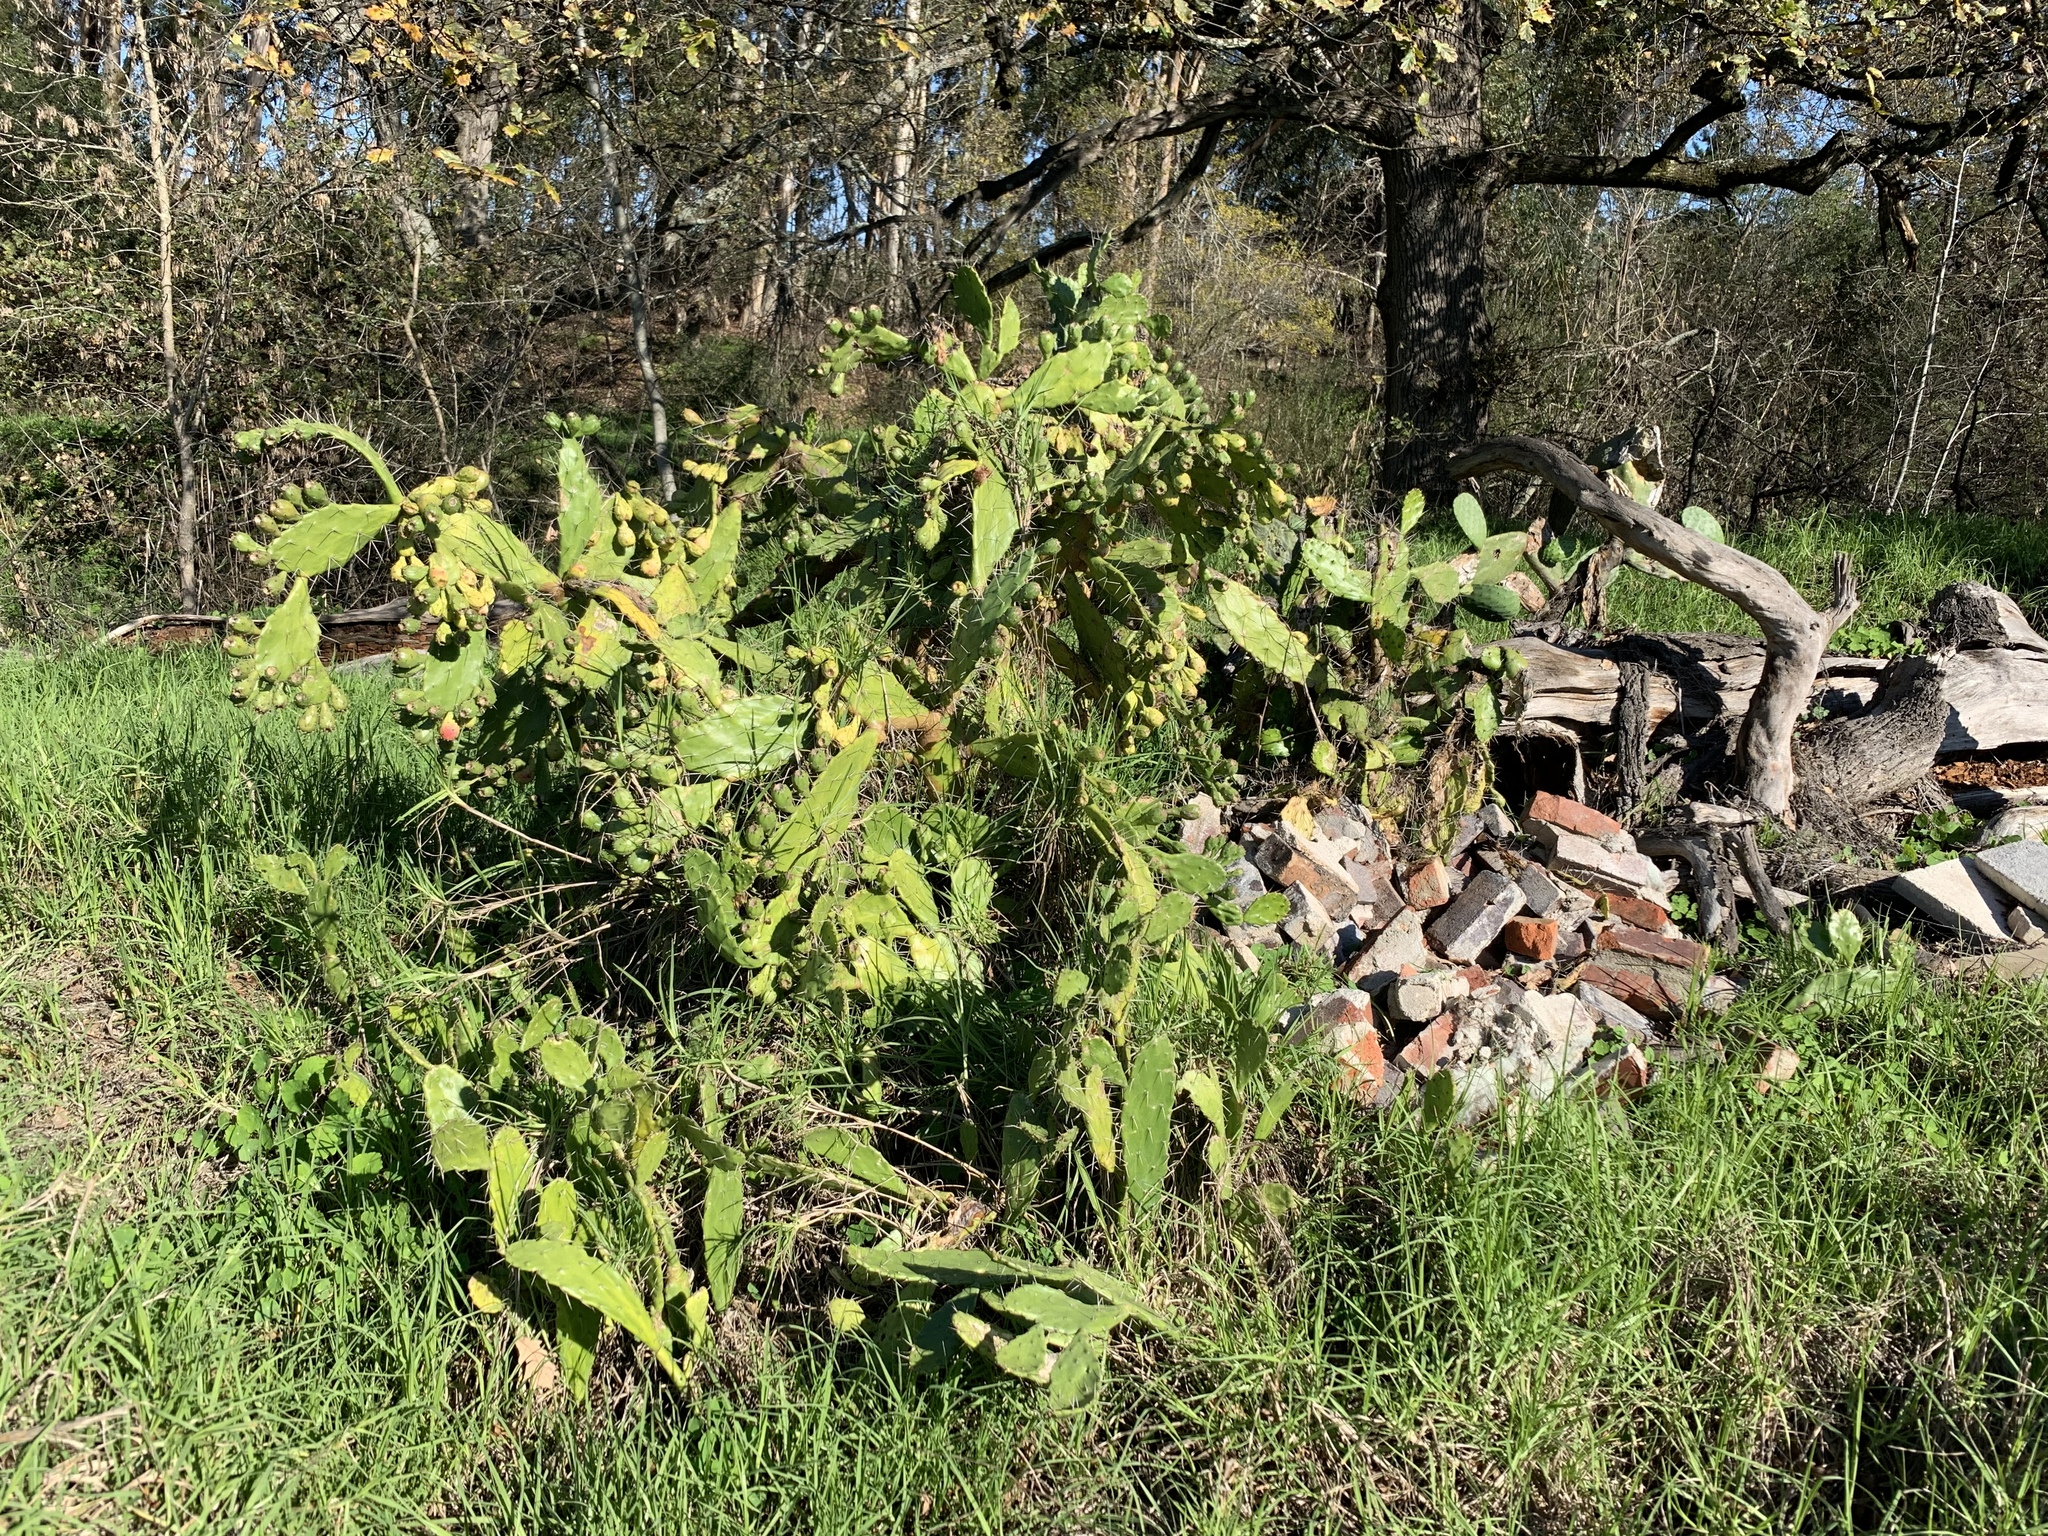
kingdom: Plantae
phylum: Tracheophyta
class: Magnoliopsida
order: Caryophyllales
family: Cactaceae
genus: Opuntia
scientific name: Opuntia monacantha
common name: Common pricklypear
